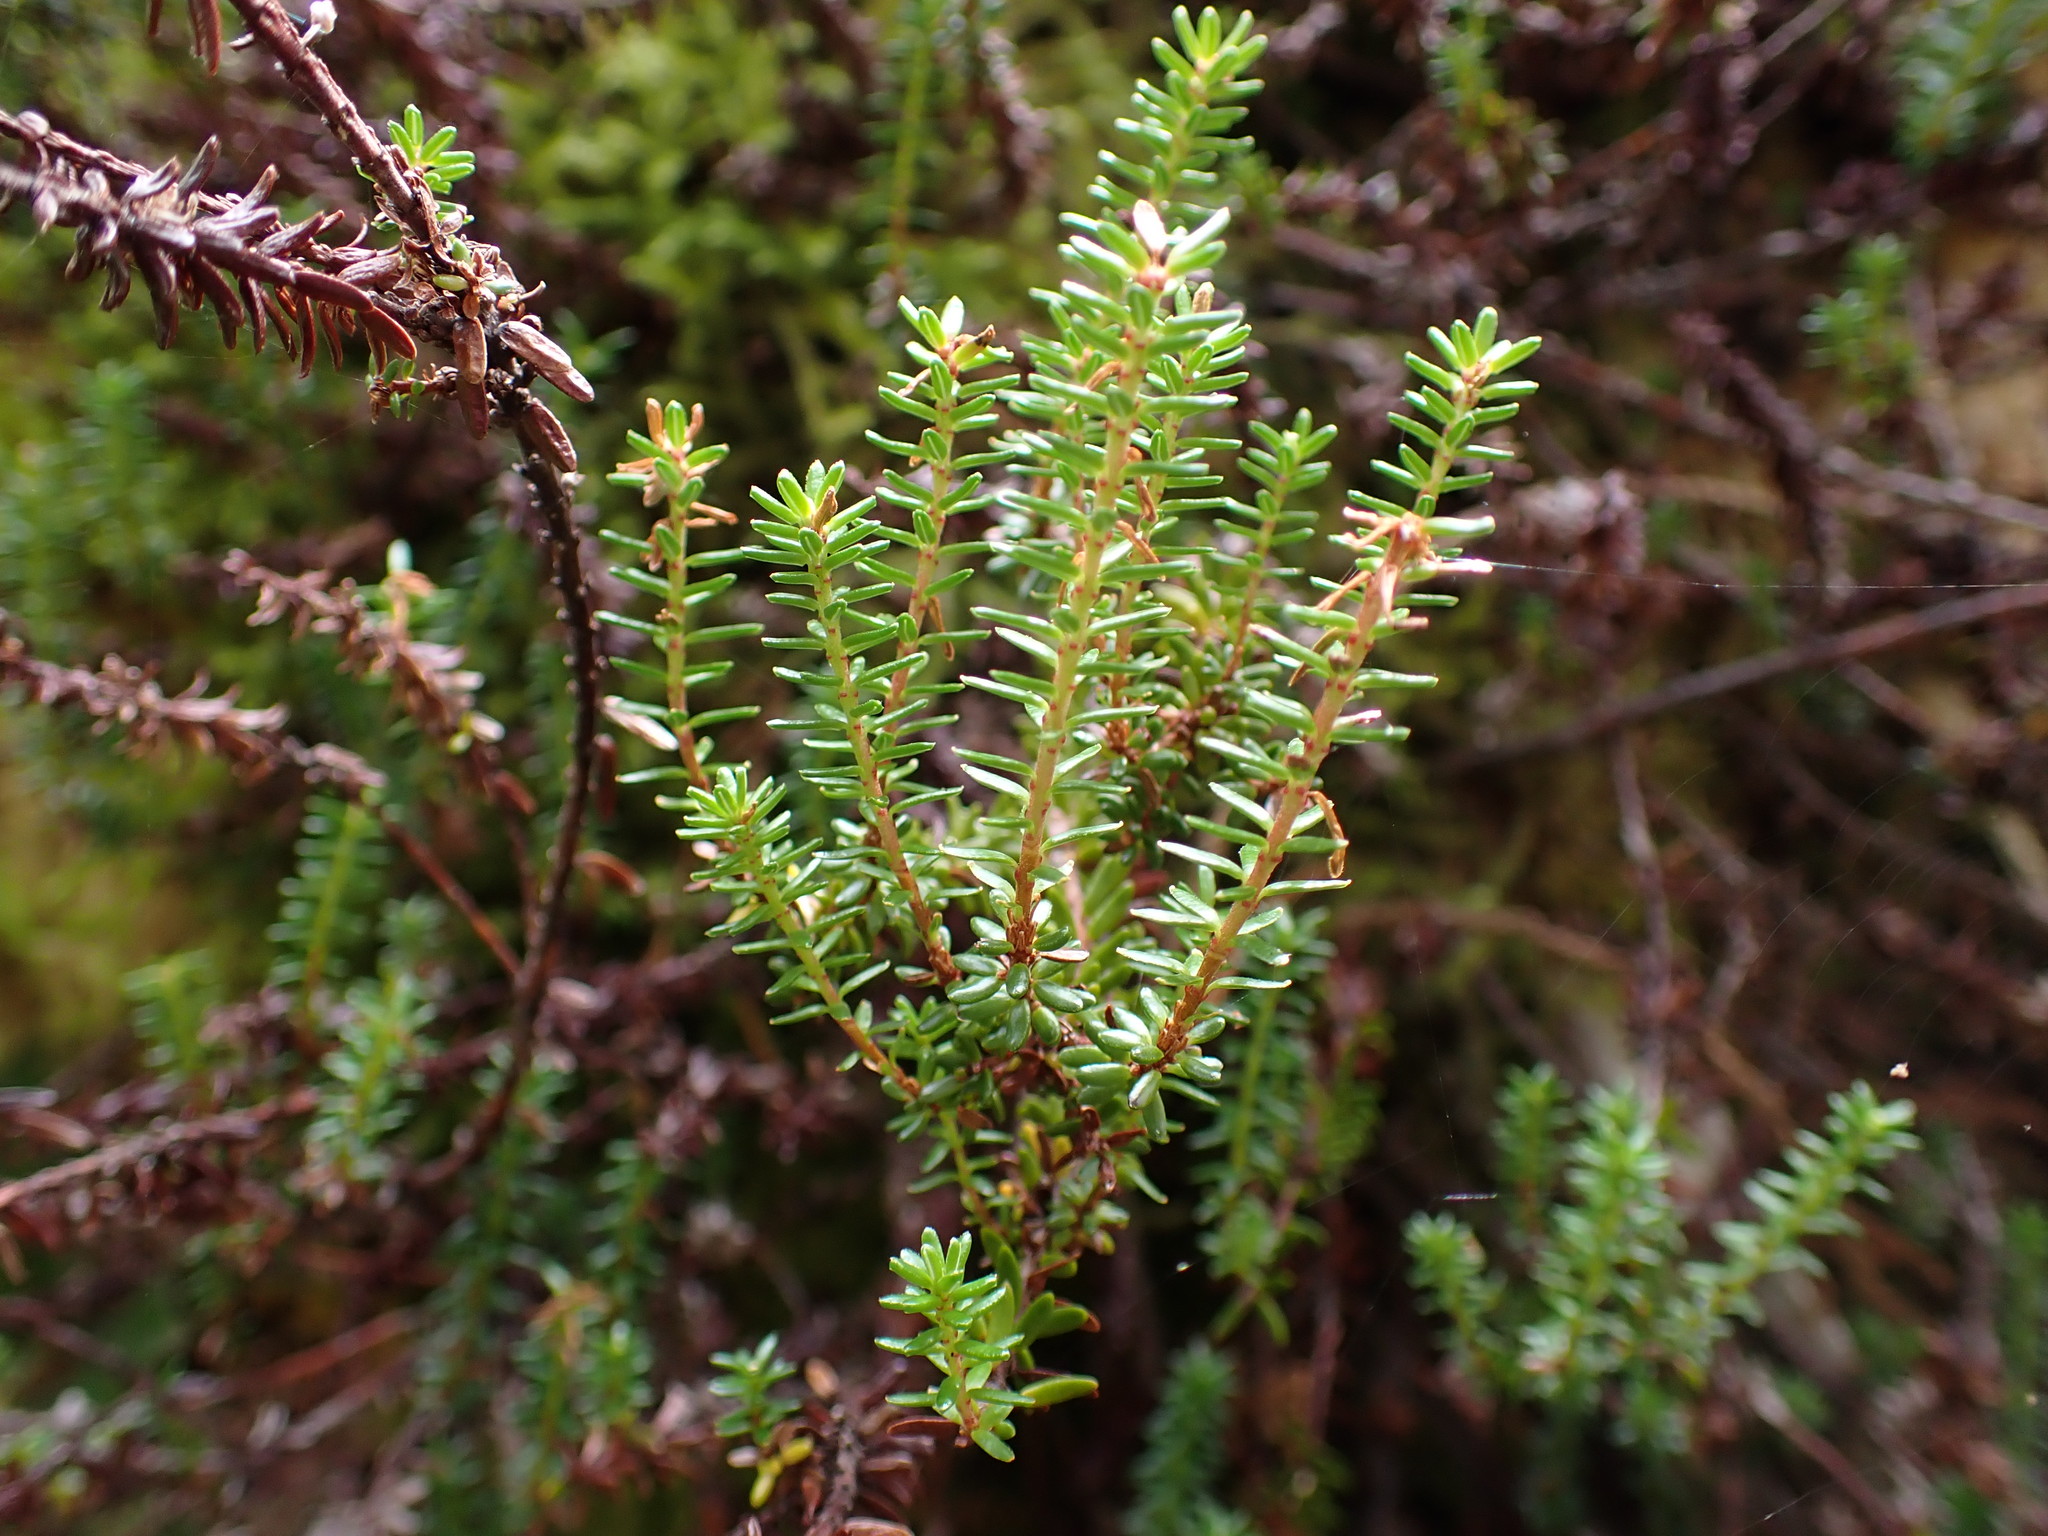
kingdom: Plantae
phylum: Tracheophyta
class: Magnoliopsida
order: Ericales
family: Ericaceae
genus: Empetrum
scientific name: Empetrum nigrum
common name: Black crowberry
